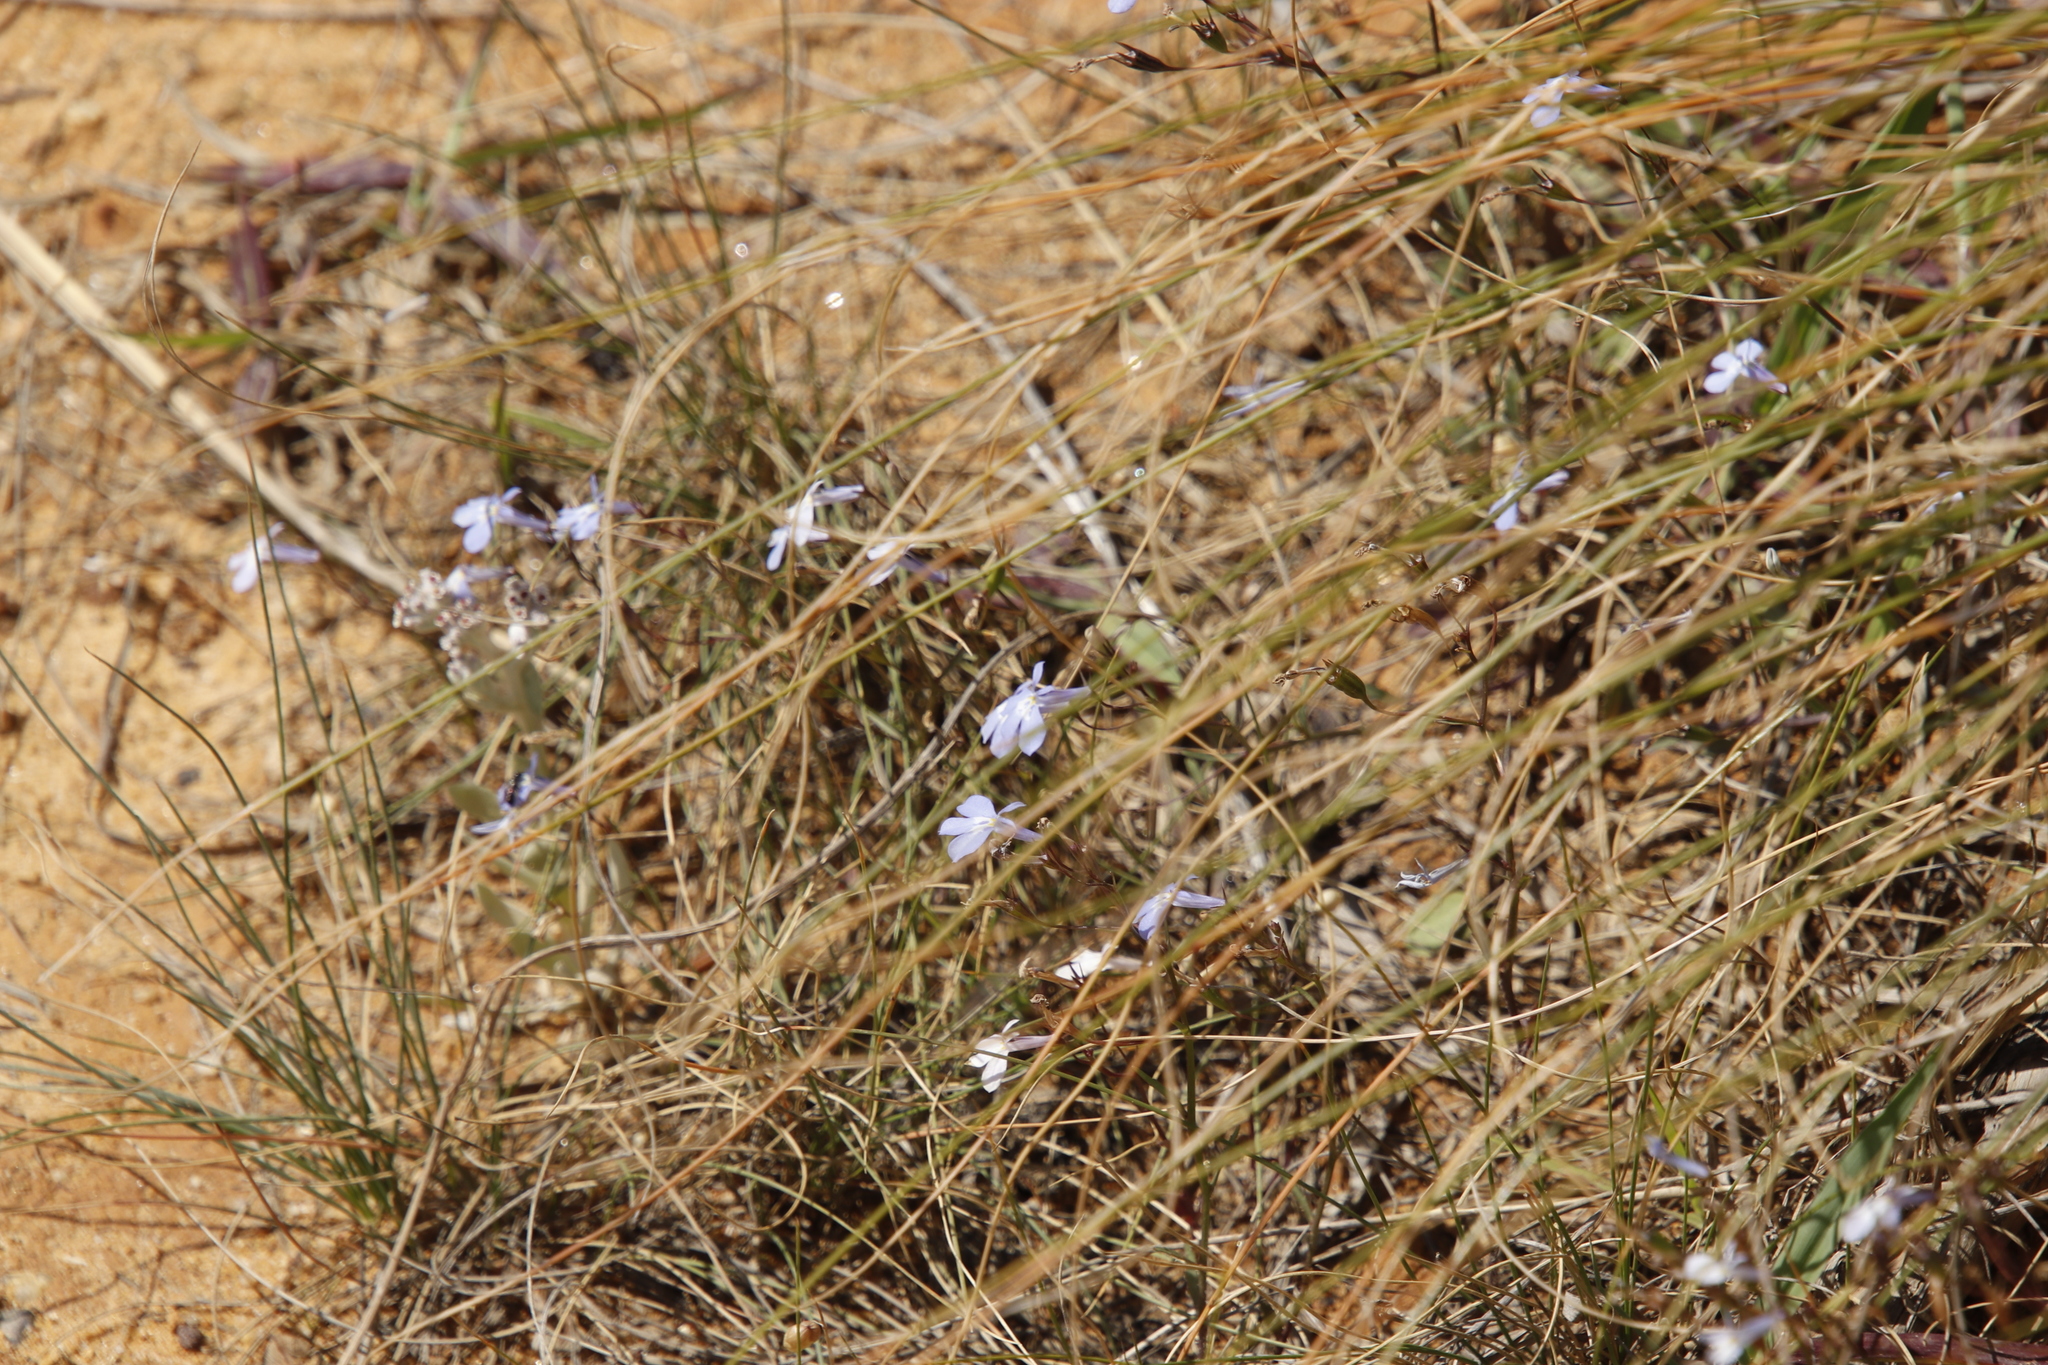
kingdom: Plantae
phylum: Tracheophyta
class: Magnoliopsida
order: Asterales
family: Campanulaceae
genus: Lobelia
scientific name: Lobelia erinus
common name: Edging lobelia
